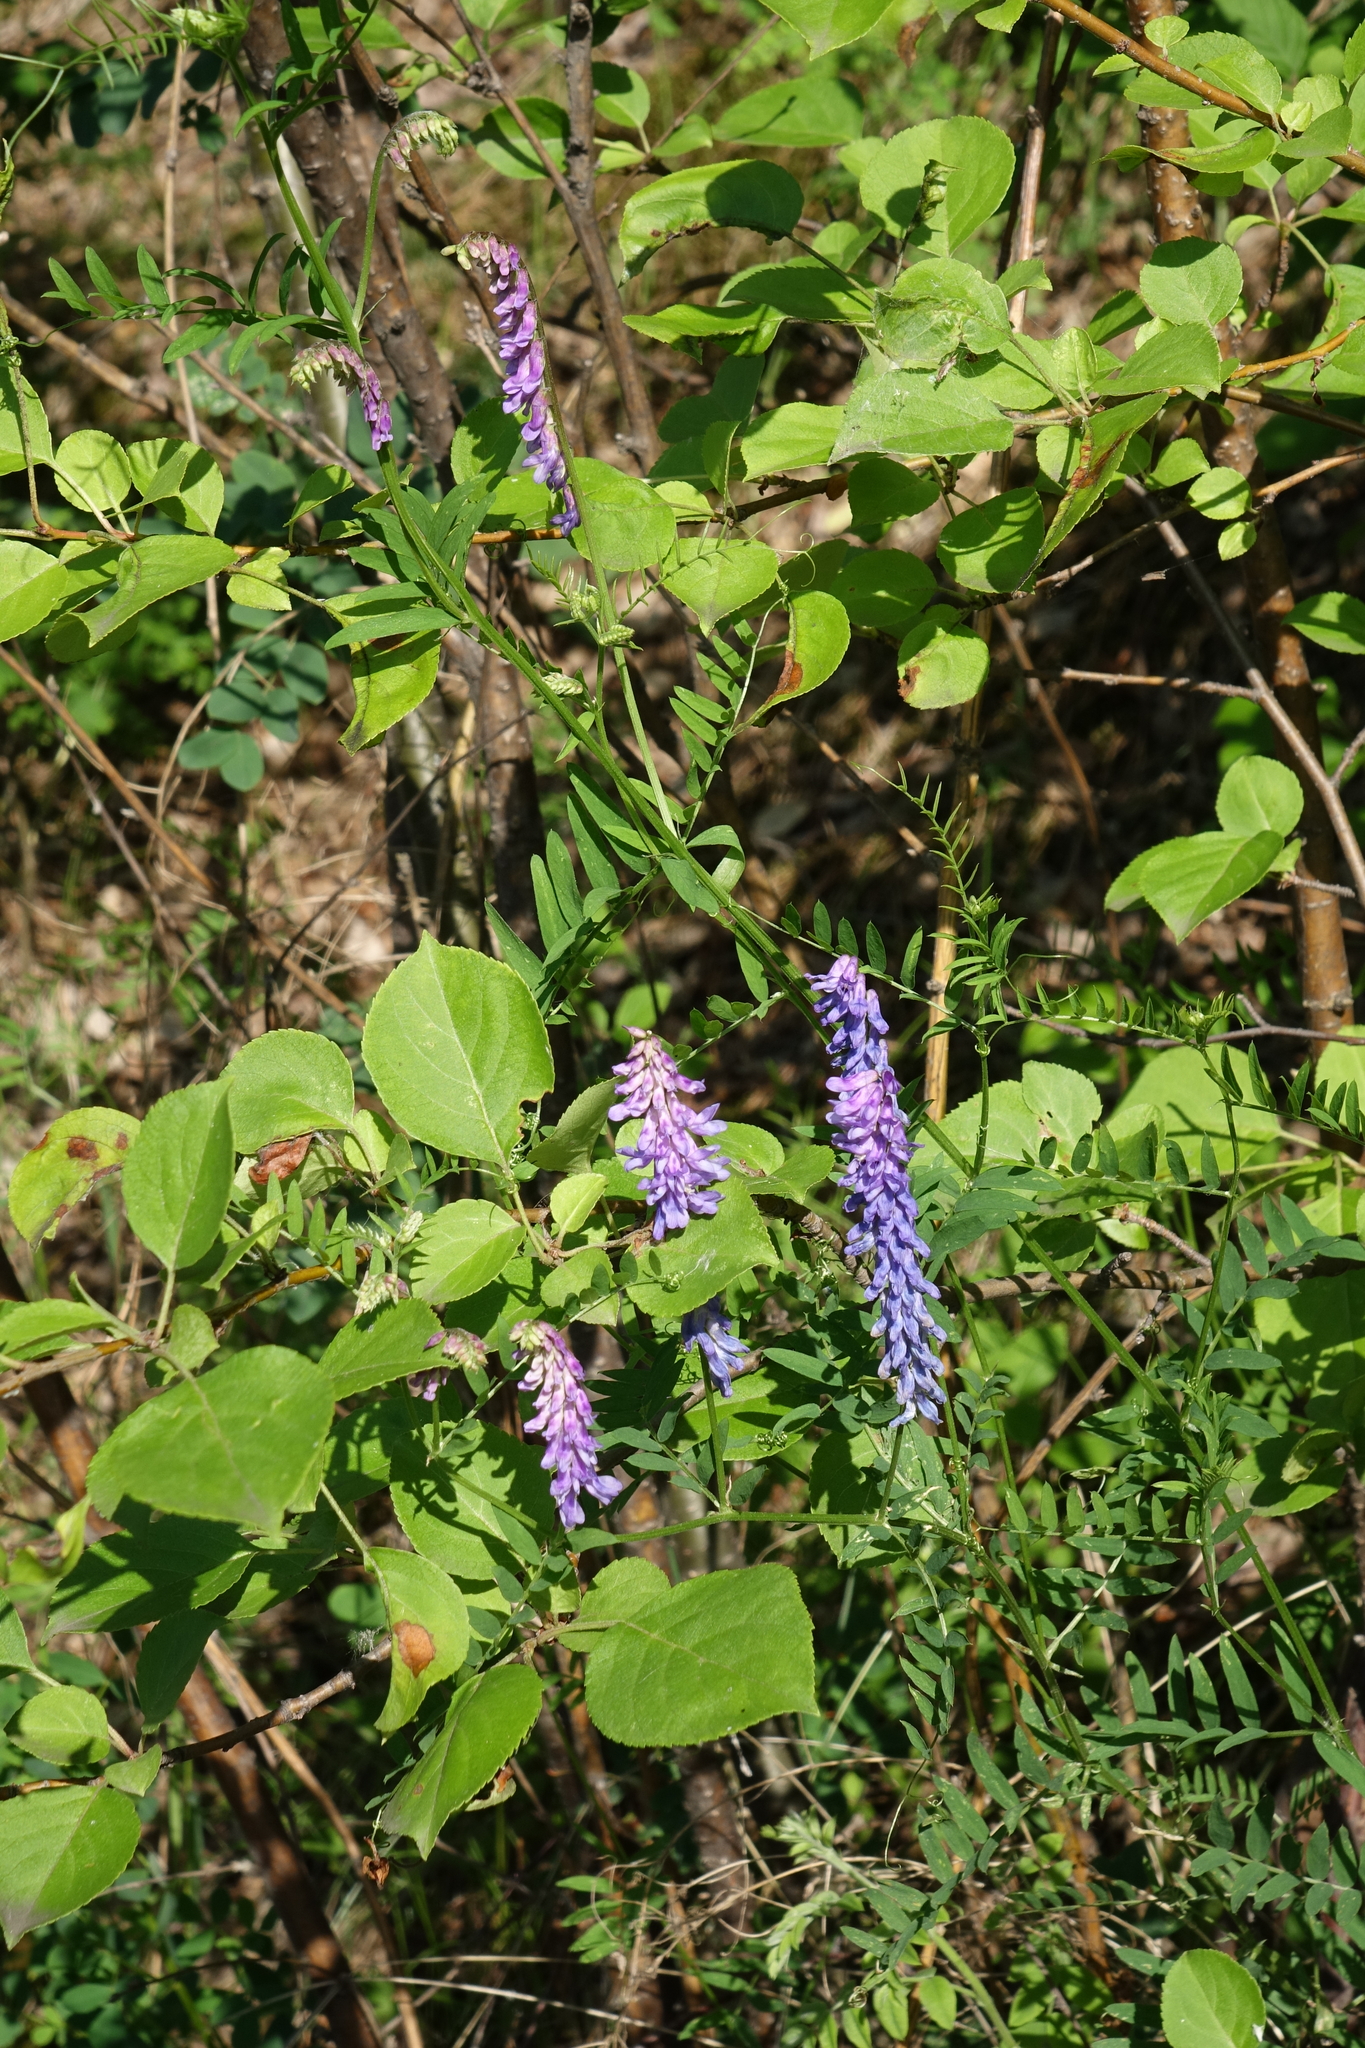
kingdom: Plantae
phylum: Tracheophyta
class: Magnoliopsida
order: Fabales
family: Fabaceae
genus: Vicia
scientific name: Vicia cracca
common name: Bird vetch
